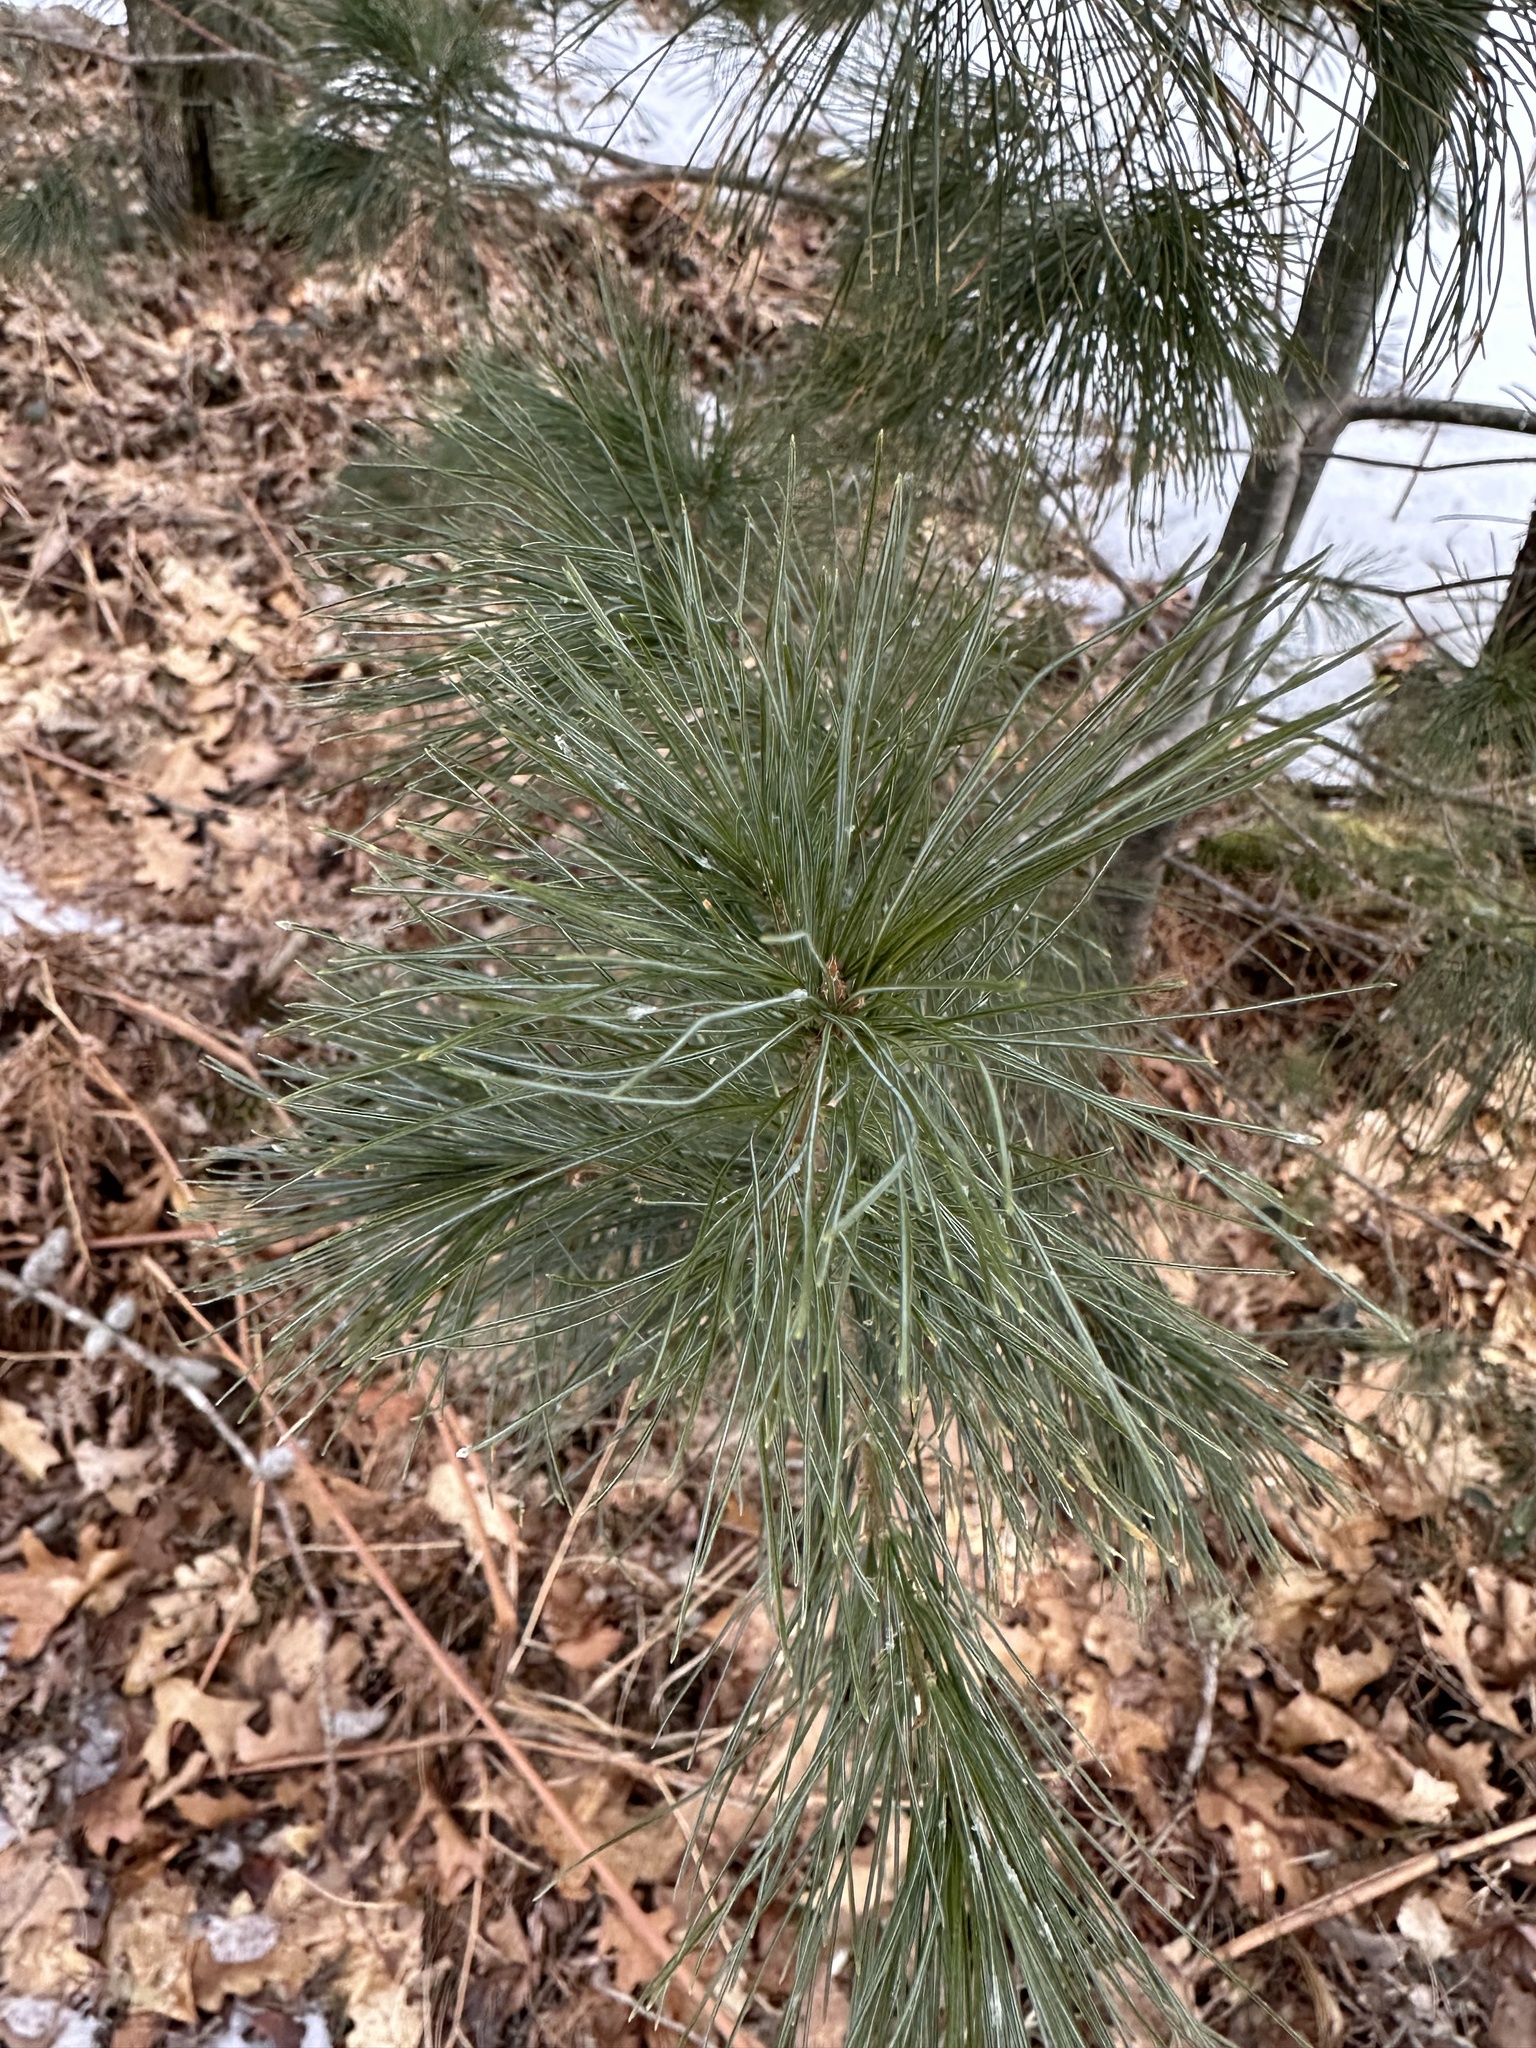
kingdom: Plantae
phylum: Tracheophyta
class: Pinopsida
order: Pinales
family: Pinaceae
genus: Pinus
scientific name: Pinus strobus
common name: Weymouth pine
